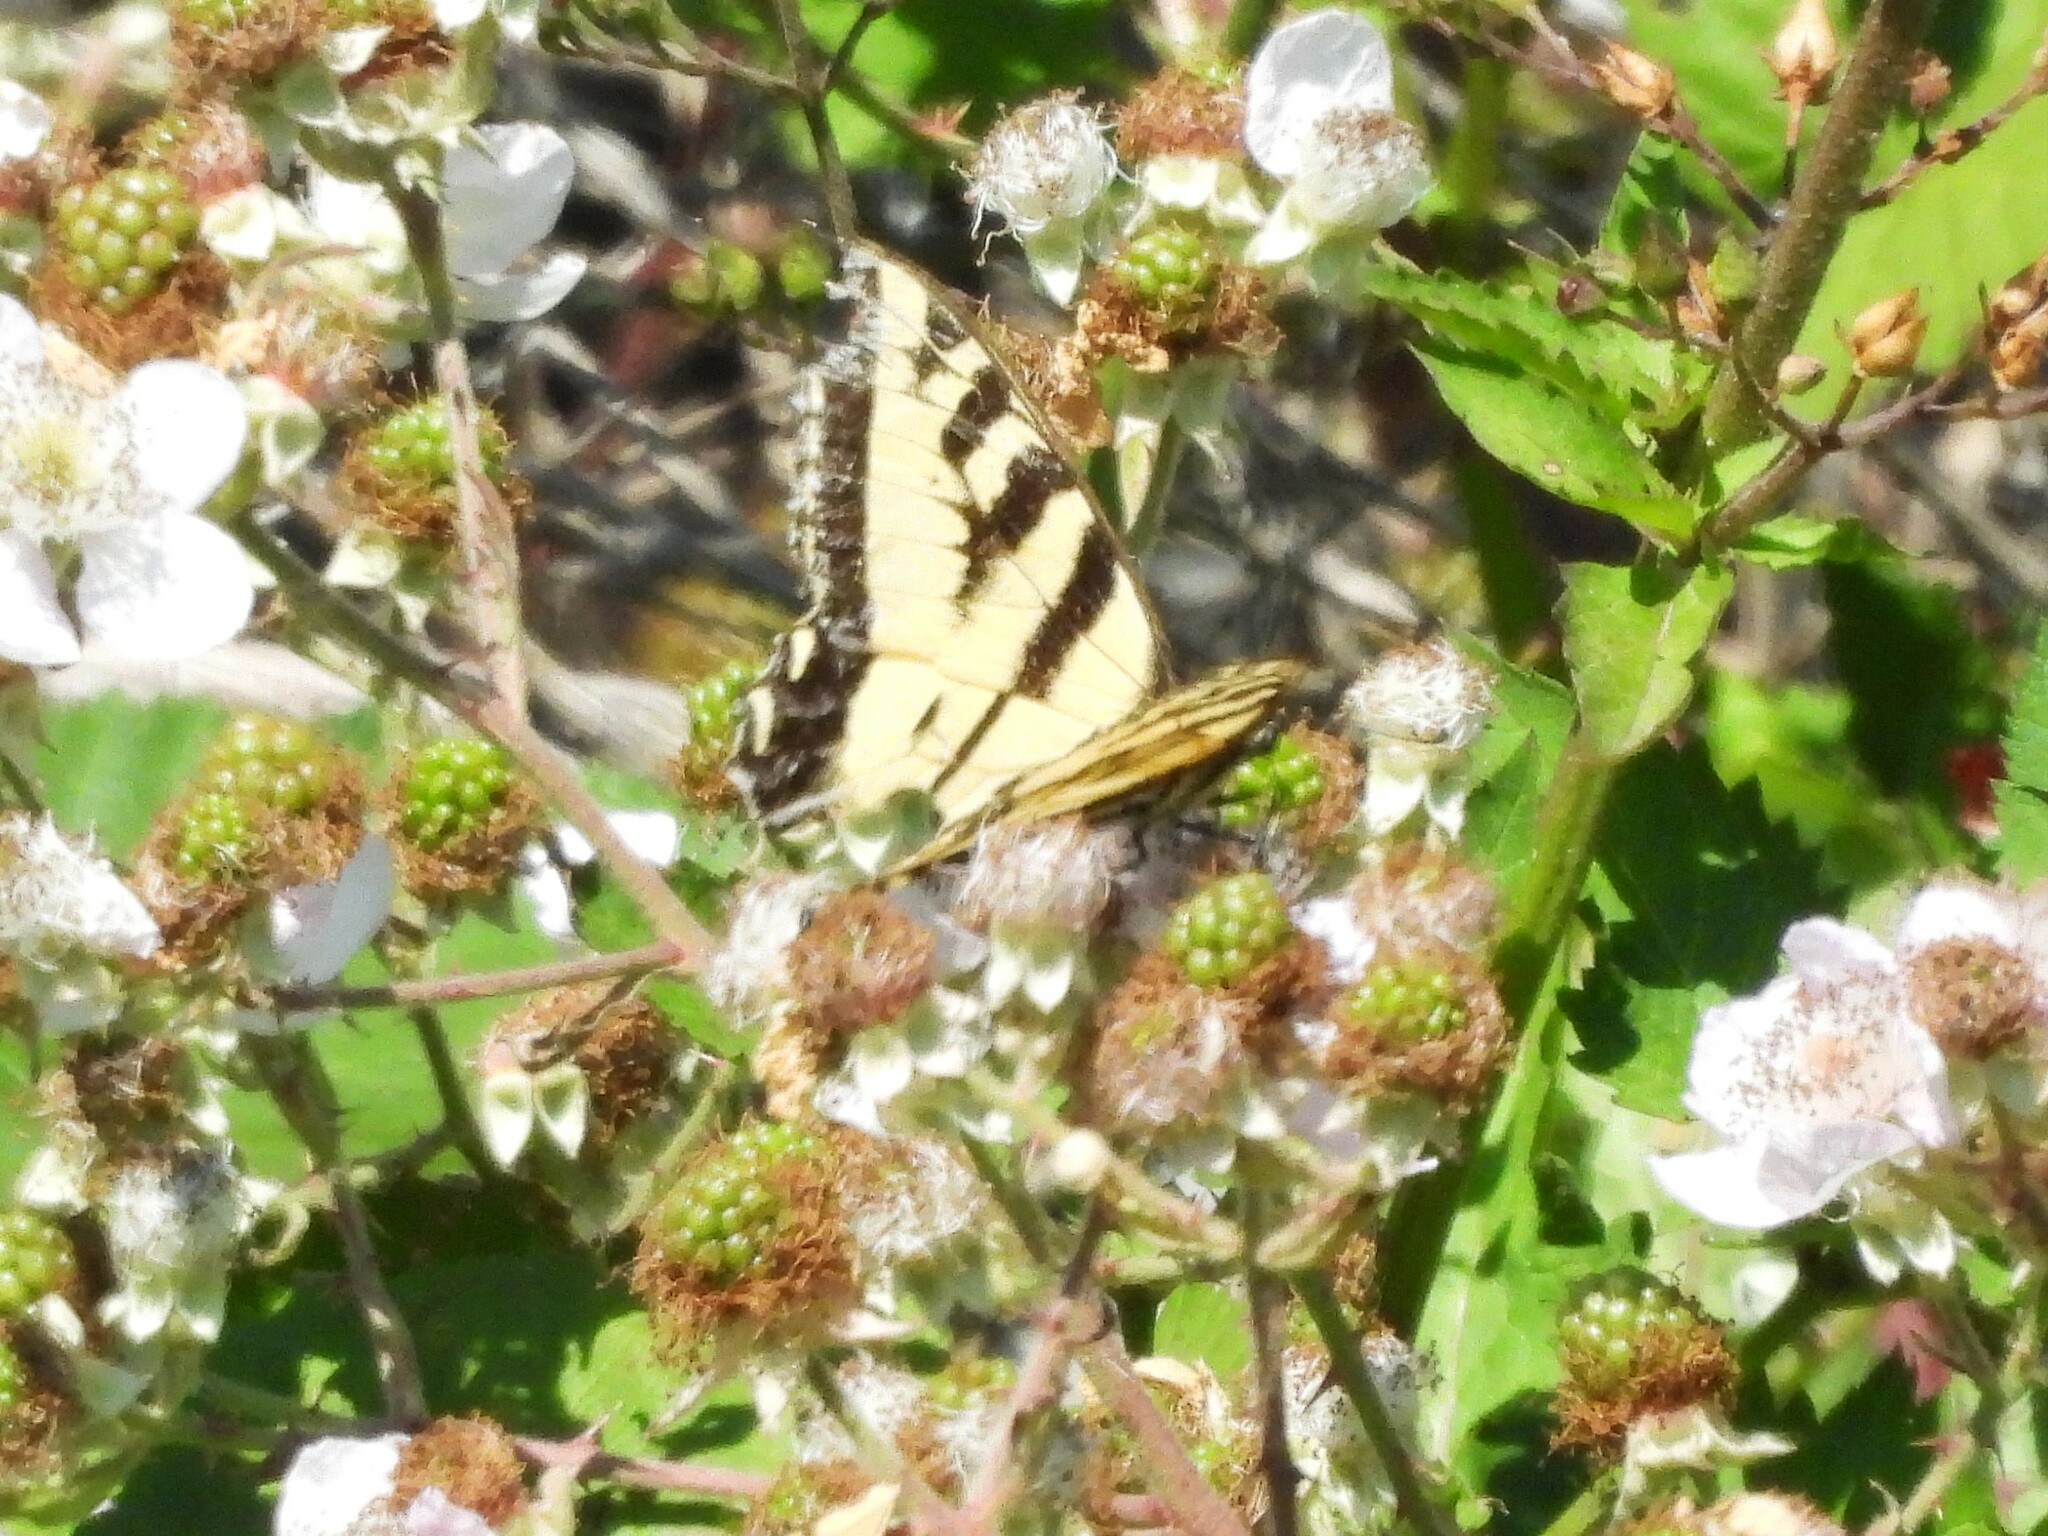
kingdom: Animalia
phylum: Arthropoda
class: Insecta
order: Lepidoptera
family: Papilionidae
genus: Papilio
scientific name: Papilio rutulus
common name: Western tiger swallowtail
